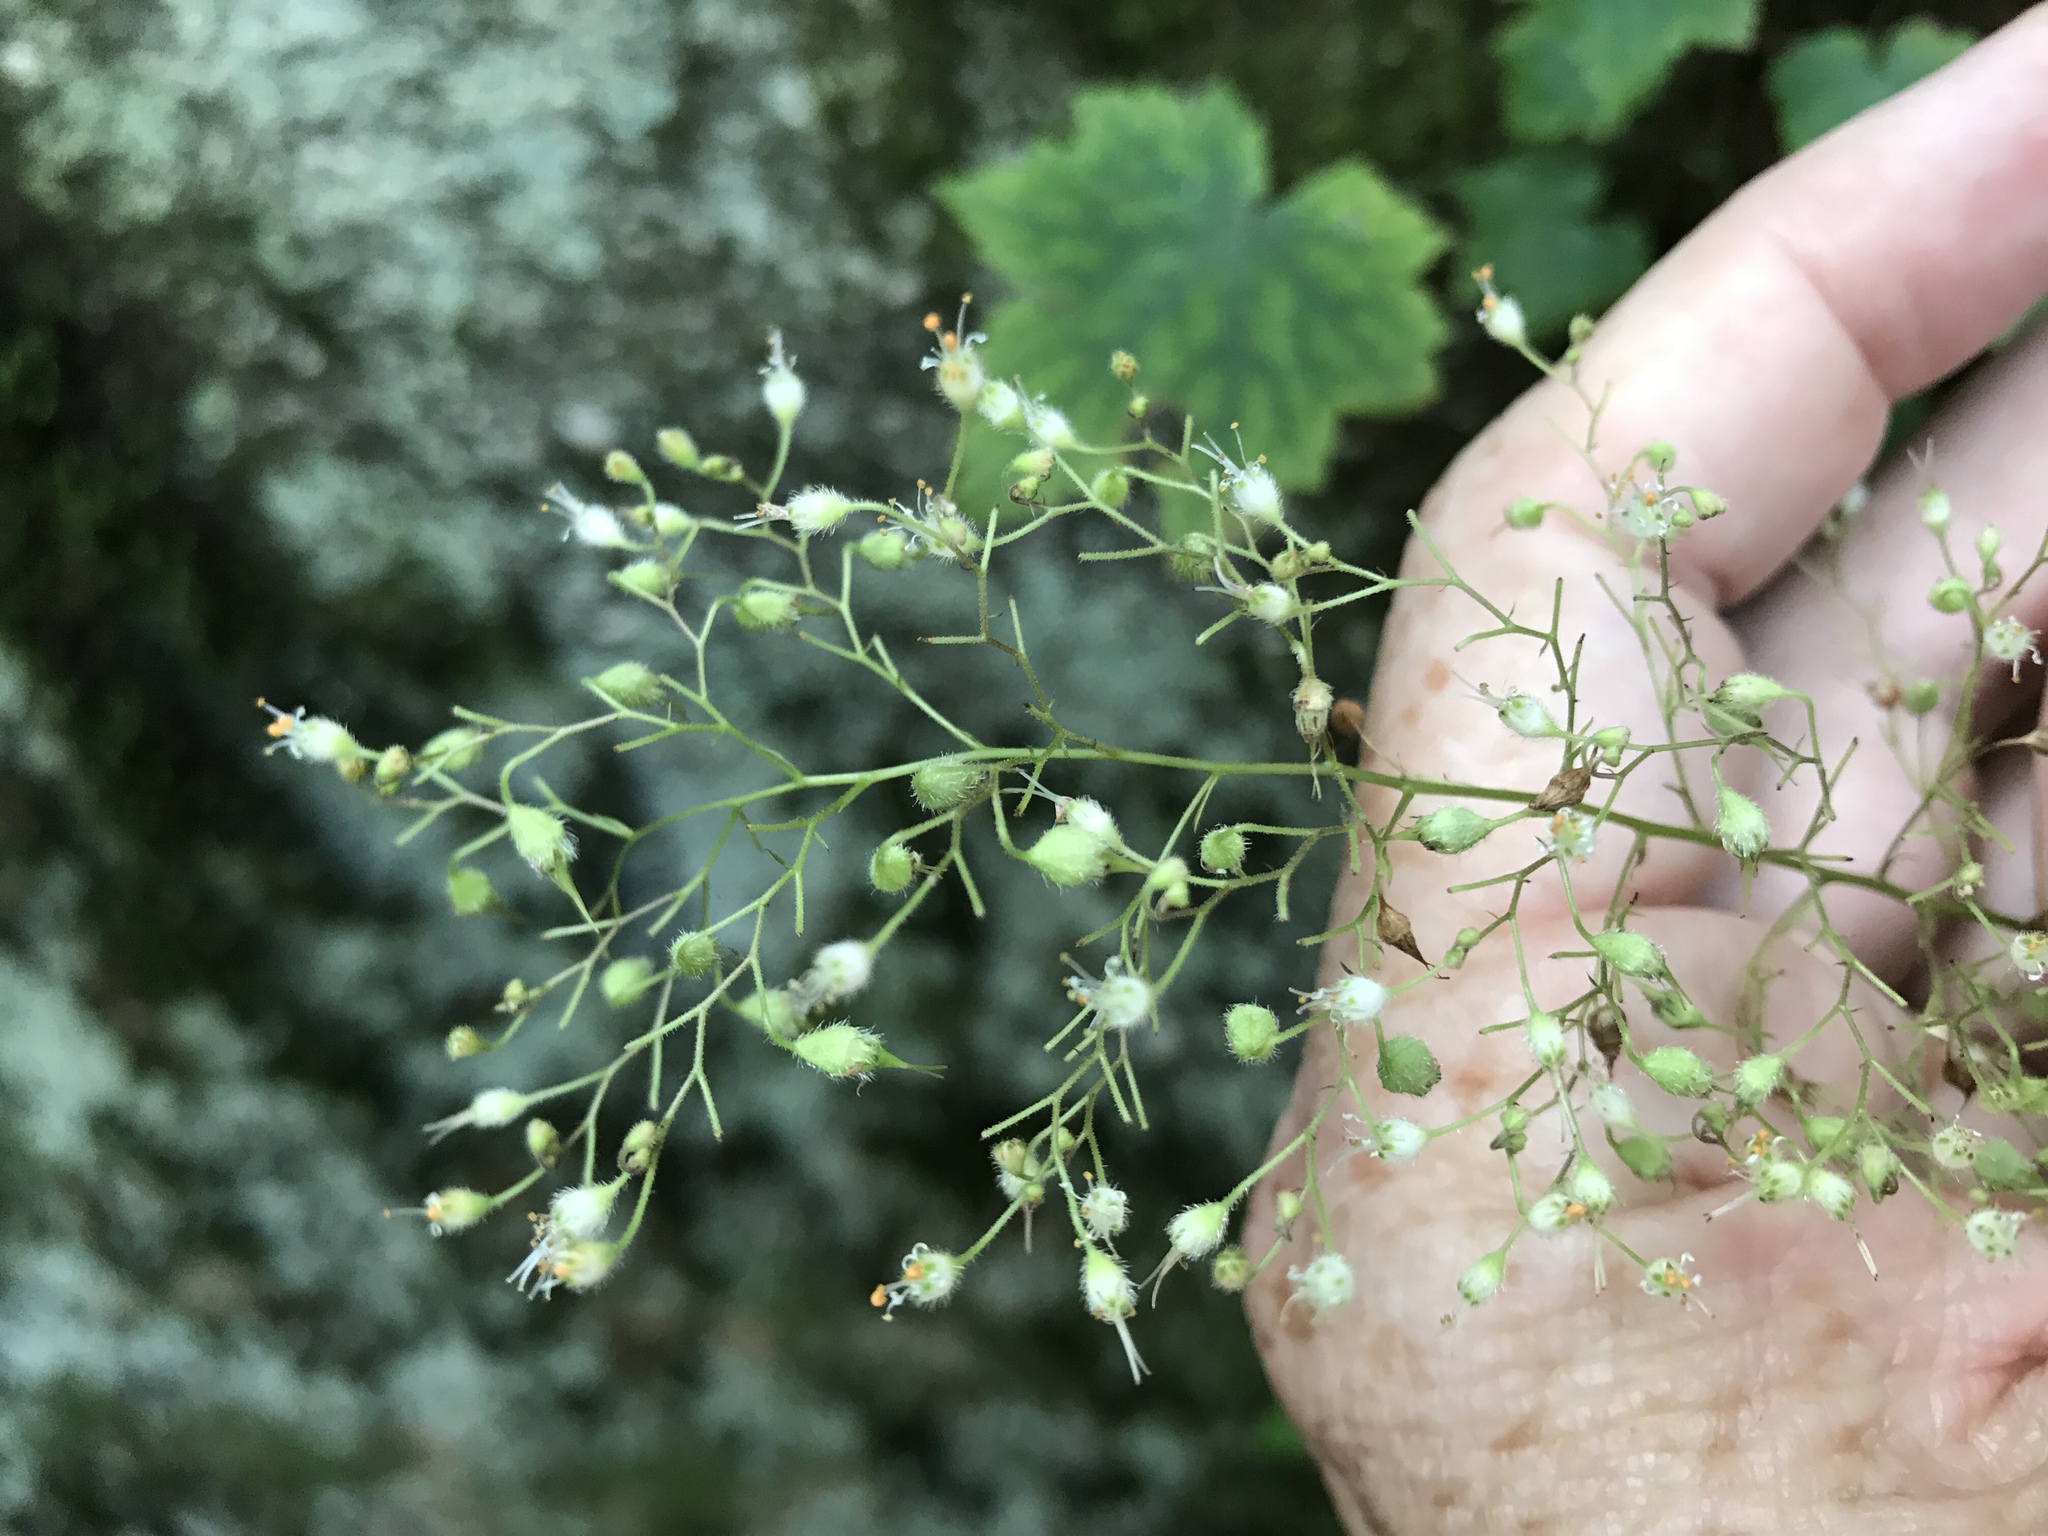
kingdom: Plantae
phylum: Tracheophyta
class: Magnoliopsida
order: Saxifragales
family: Saxifragaceae
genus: Heuchera
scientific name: Heuchera villosa
